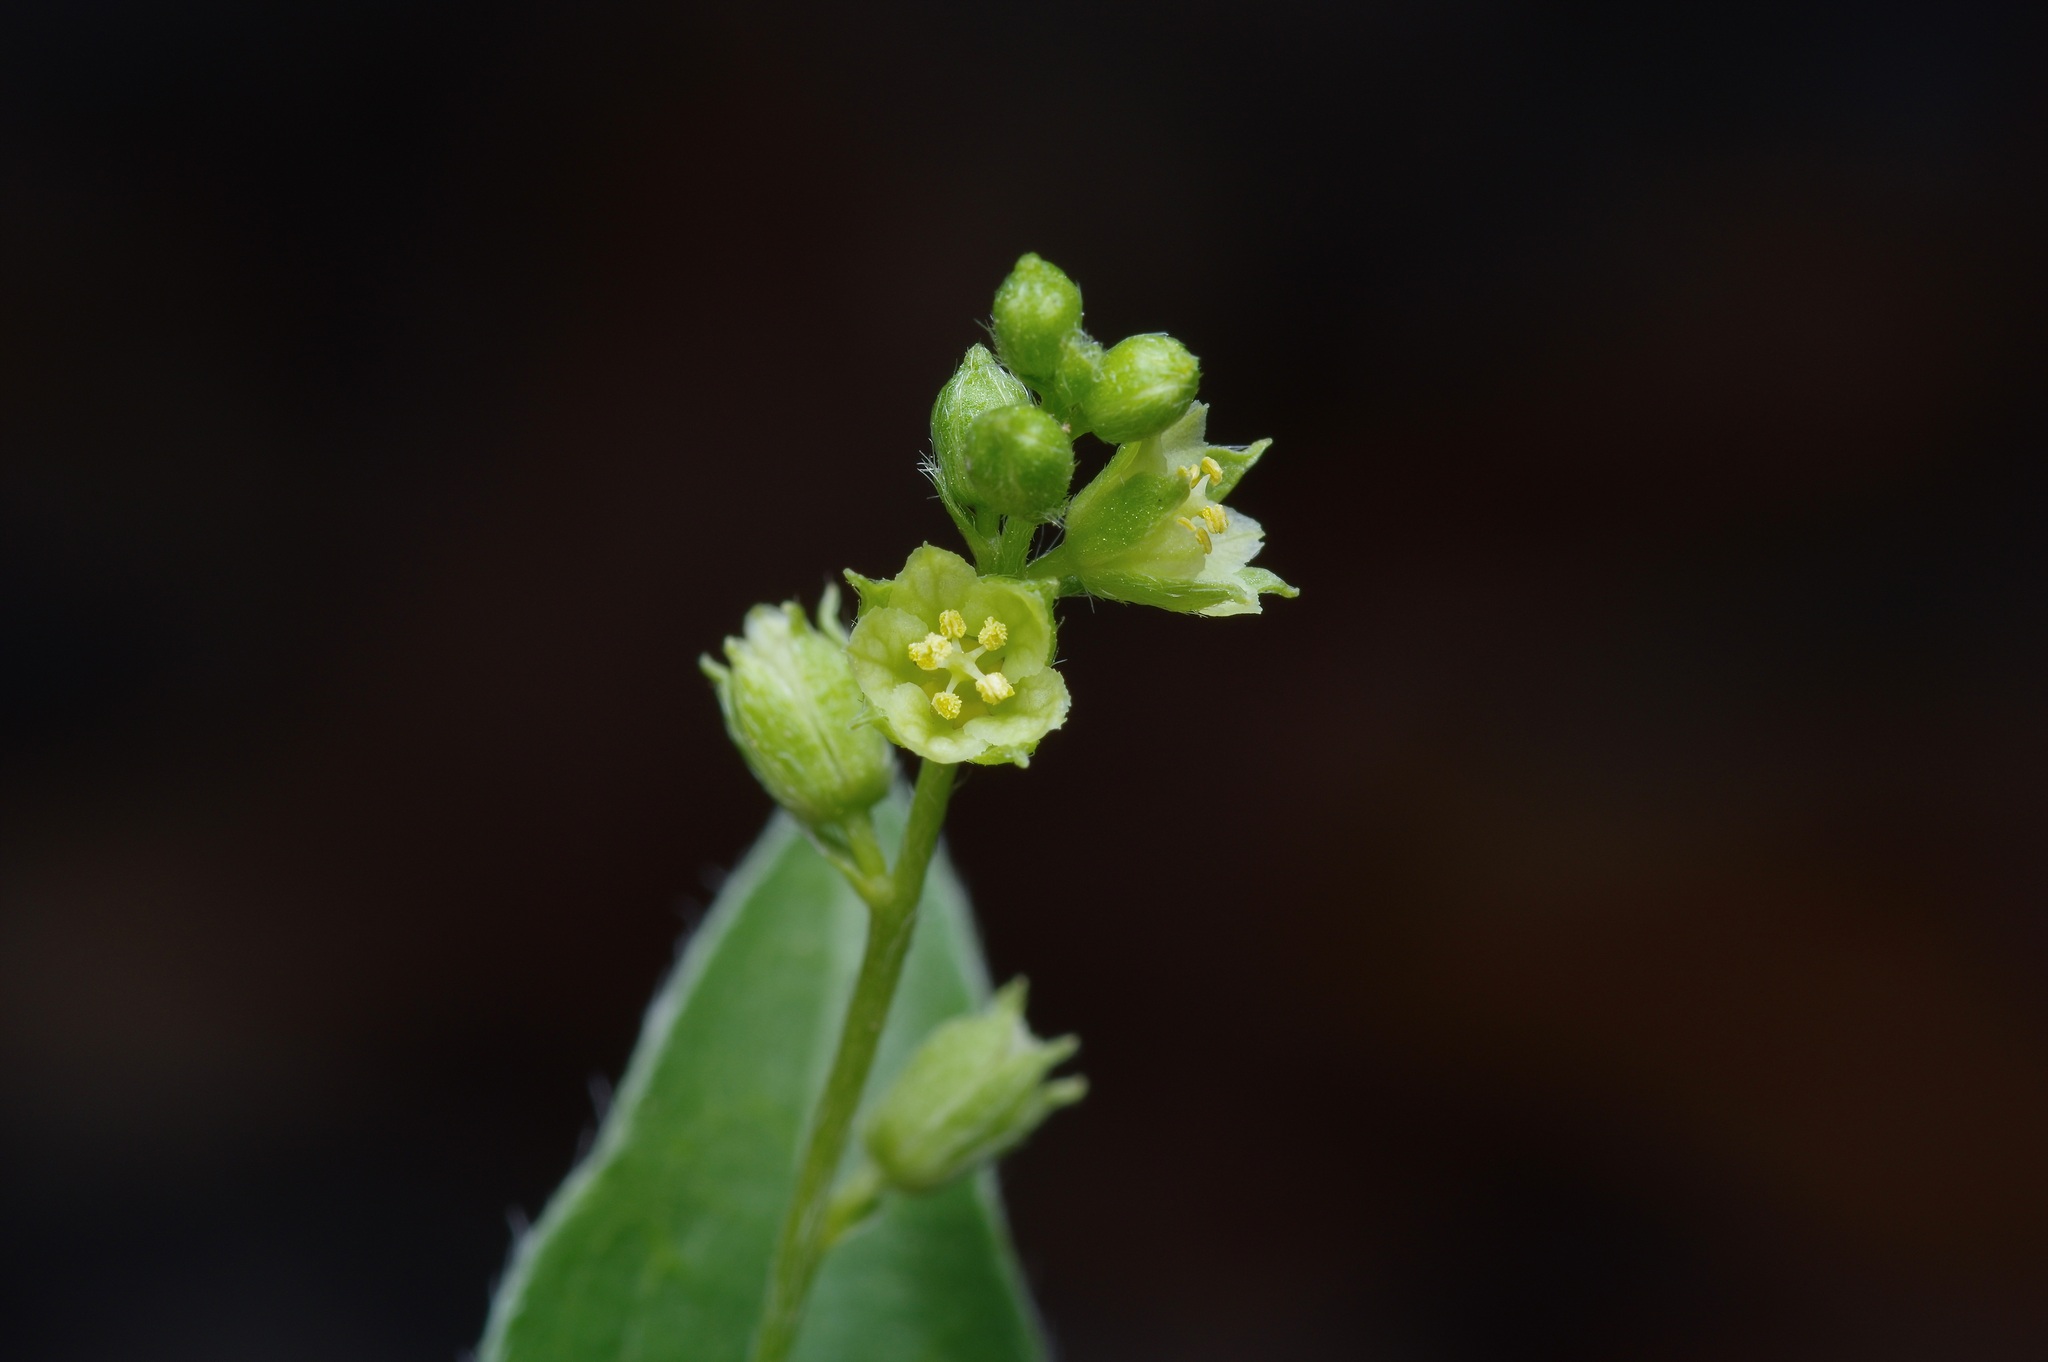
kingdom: Plantae
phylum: Tracheophyta
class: Magnoliopsida
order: Malpighiales
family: Euphorbiaceae
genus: Ditaxis
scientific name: Ditaxis simulans
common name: Plateau silverbush
